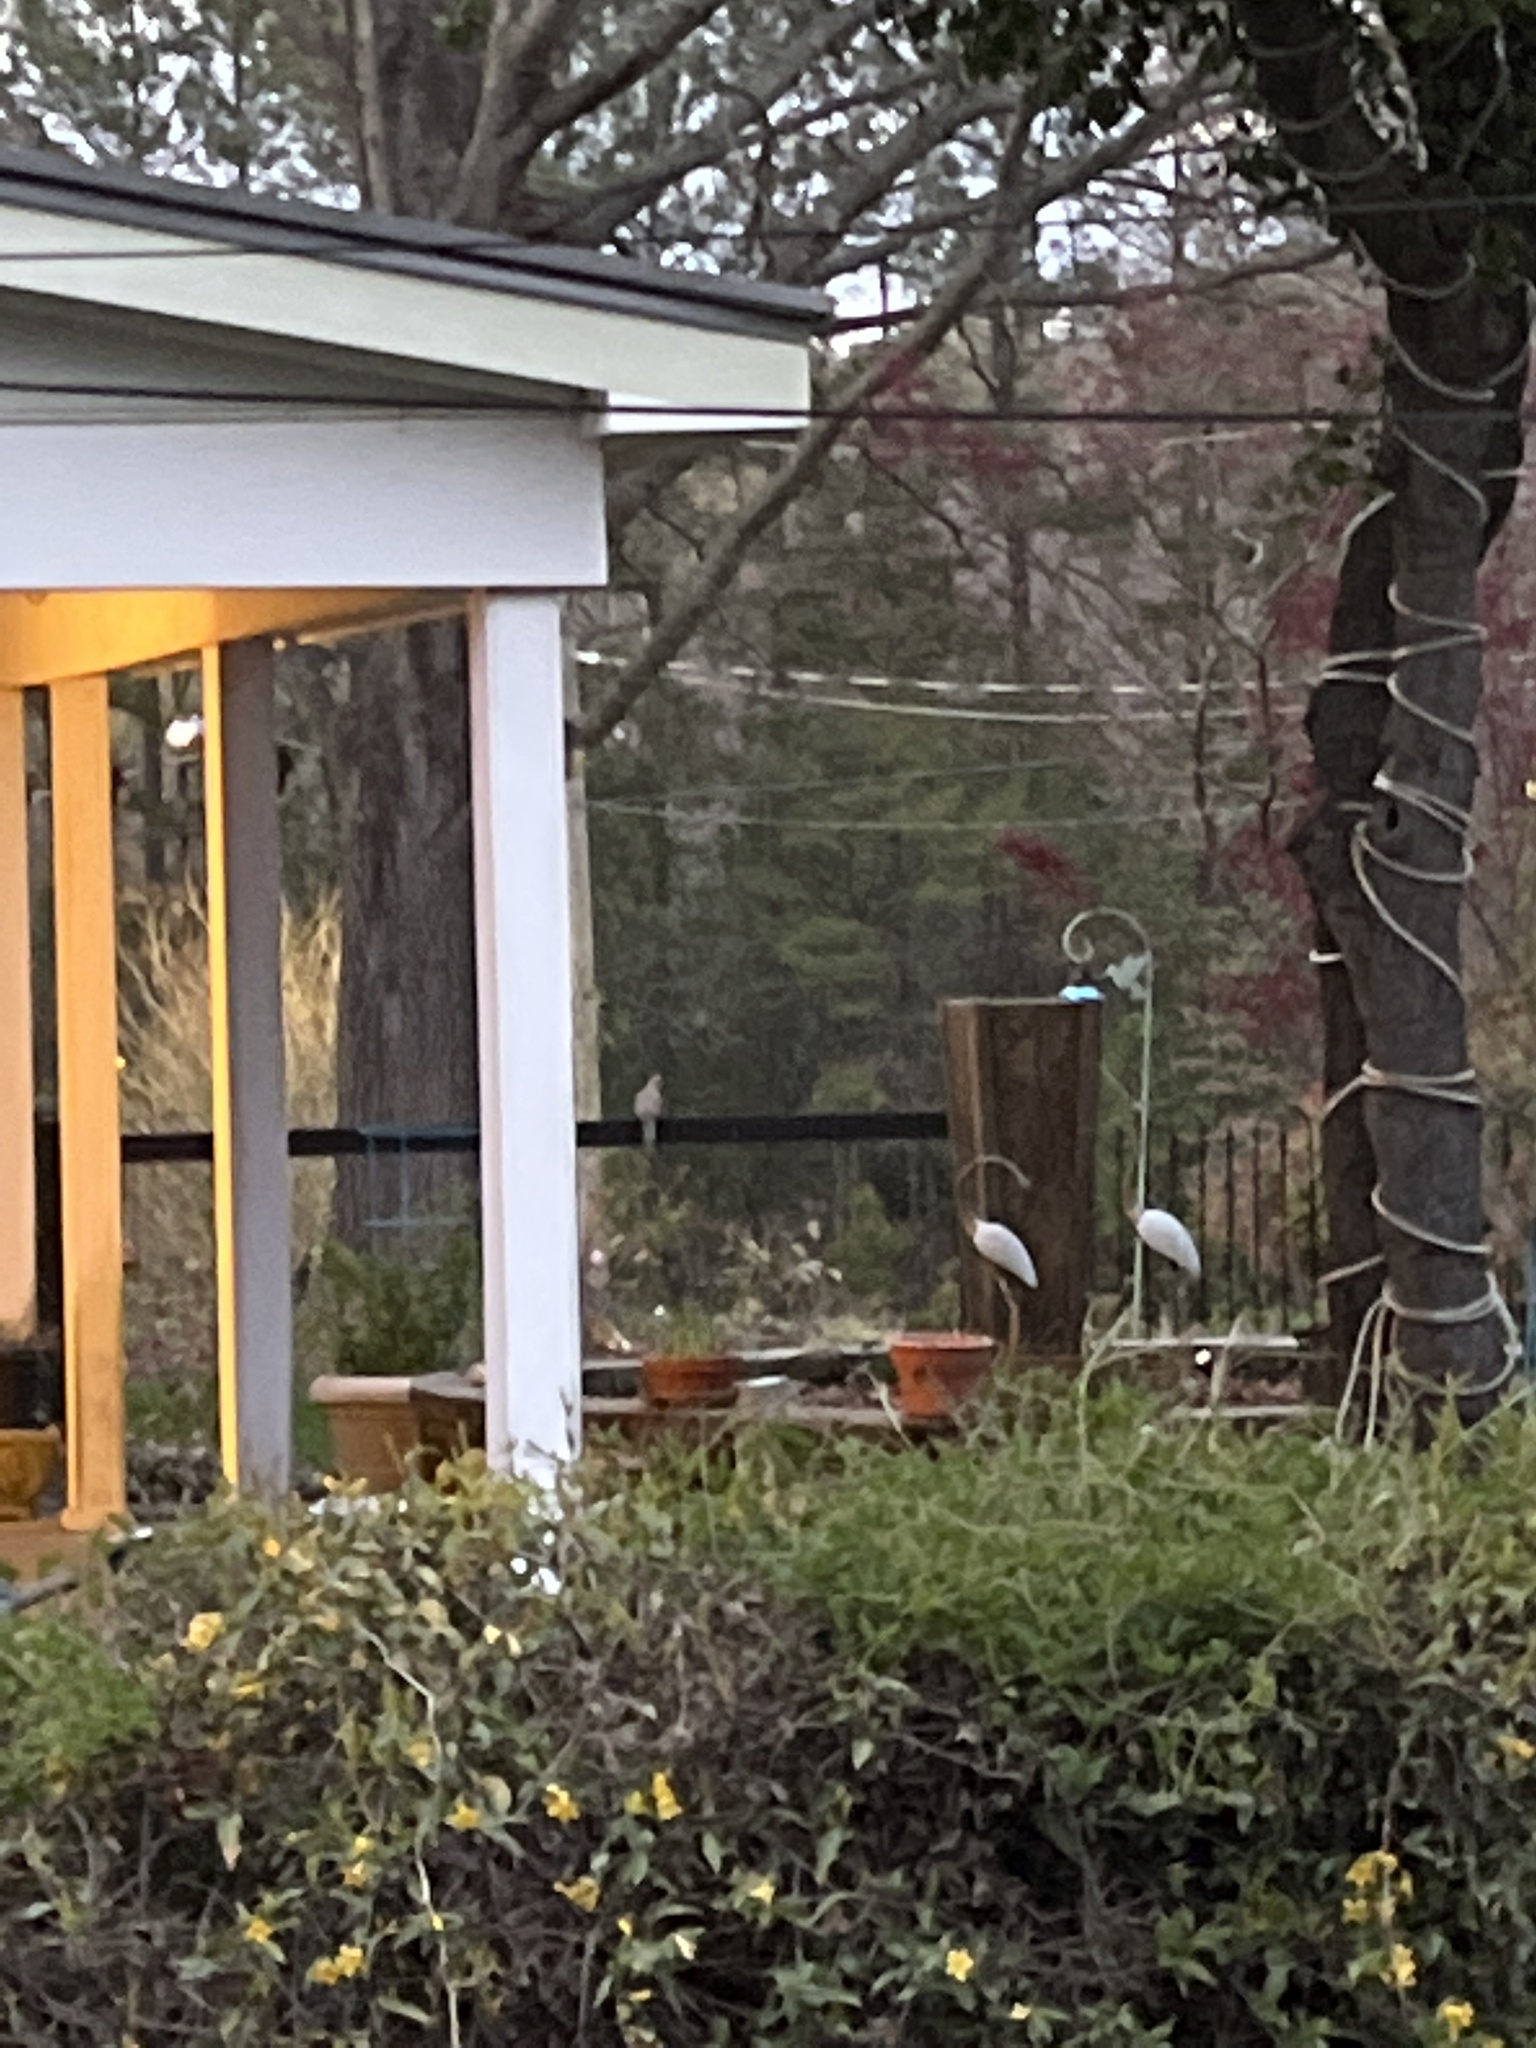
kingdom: Animalia
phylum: Chordata
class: Aves
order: Columbiformes
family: Columbidae
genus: Zenaida
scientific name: Zenaida macroura
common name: Mourning dove
